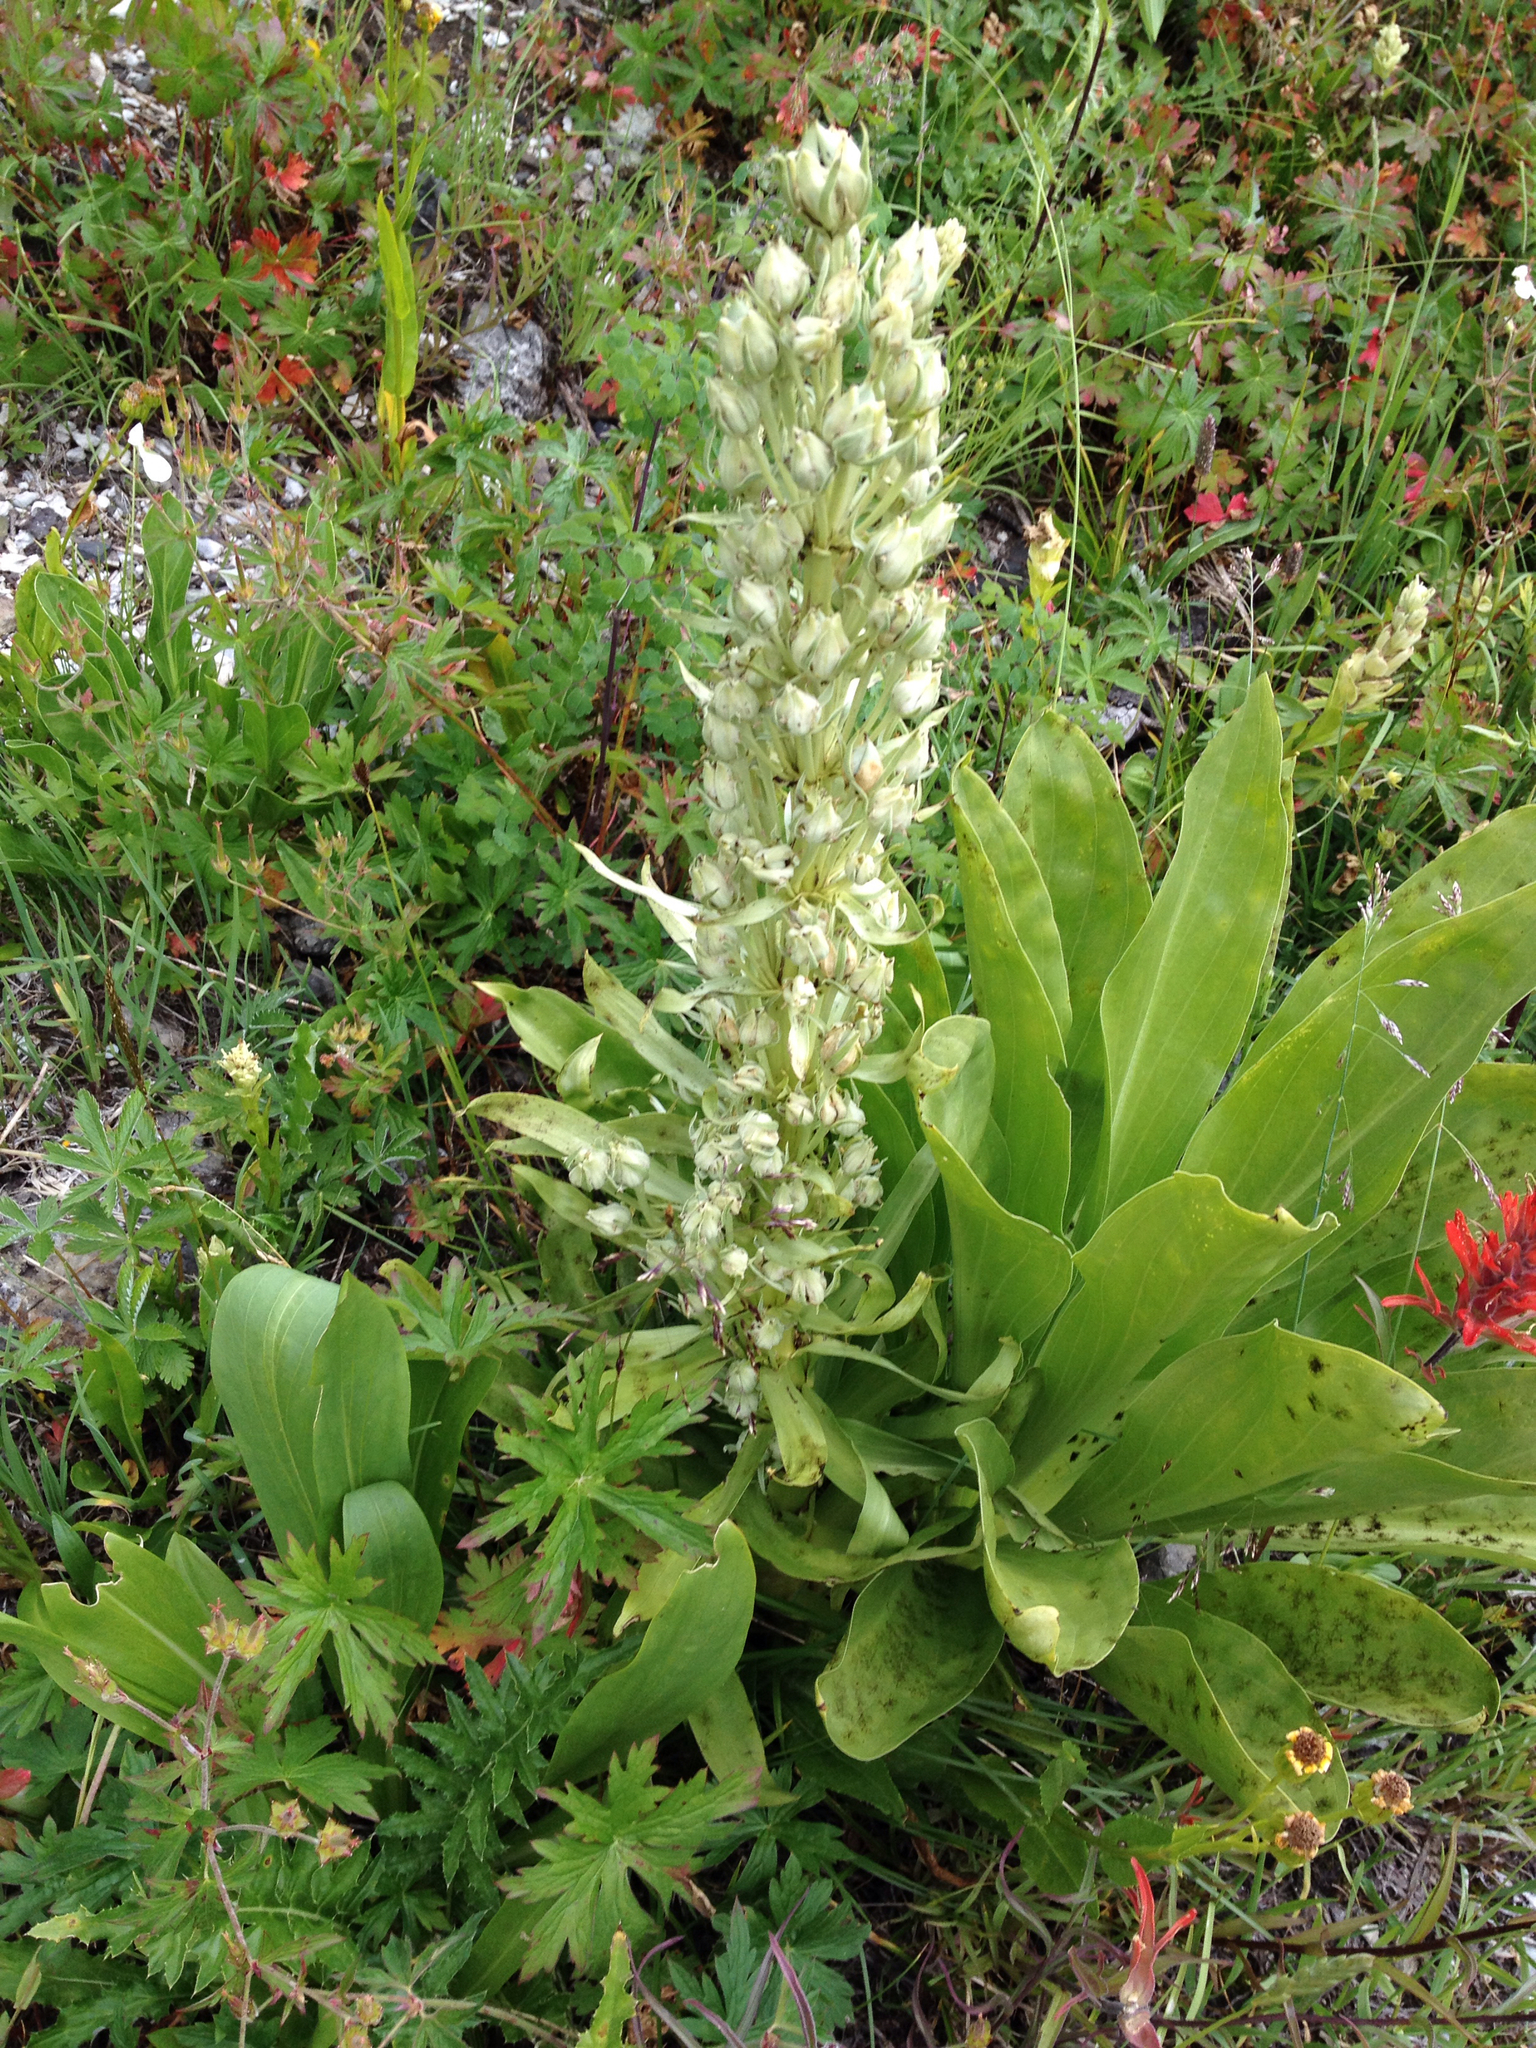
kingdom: Plantae
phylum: Tracheophyta
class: Magnoliopsida
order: Gentianales
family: Gentianaceae
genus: Frasera
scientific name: Frasera speciosa
